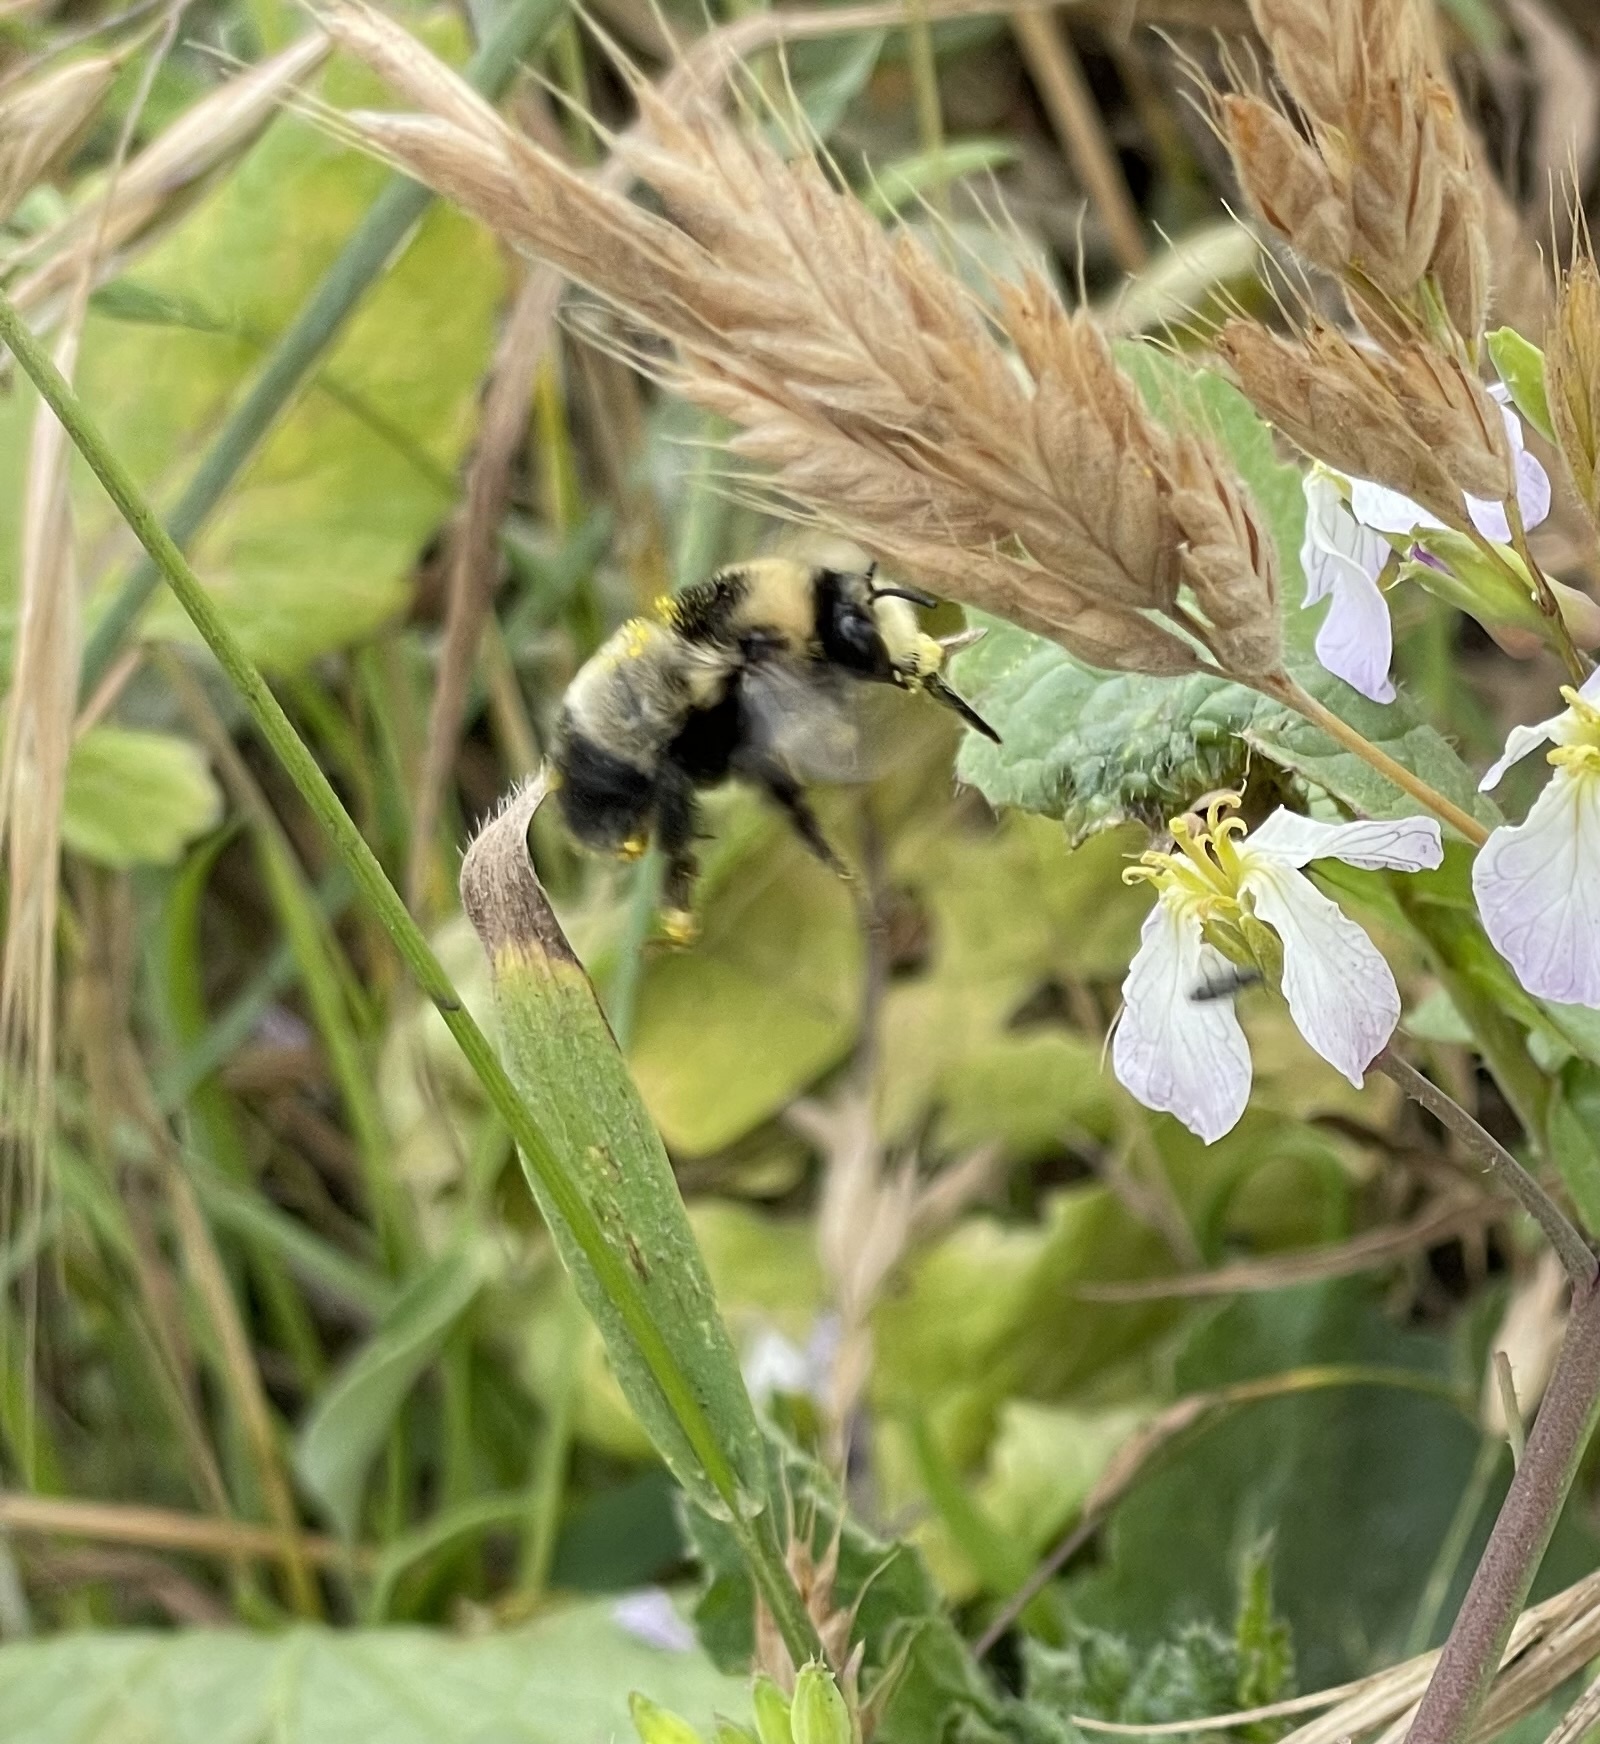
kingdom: Animalia
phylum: Arthropoda
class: Insecta
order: Hymenoptera
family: Apidae
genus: Anthophora
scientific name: Anthophora bomboides
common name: Bumble-bee-mimic digger bee
